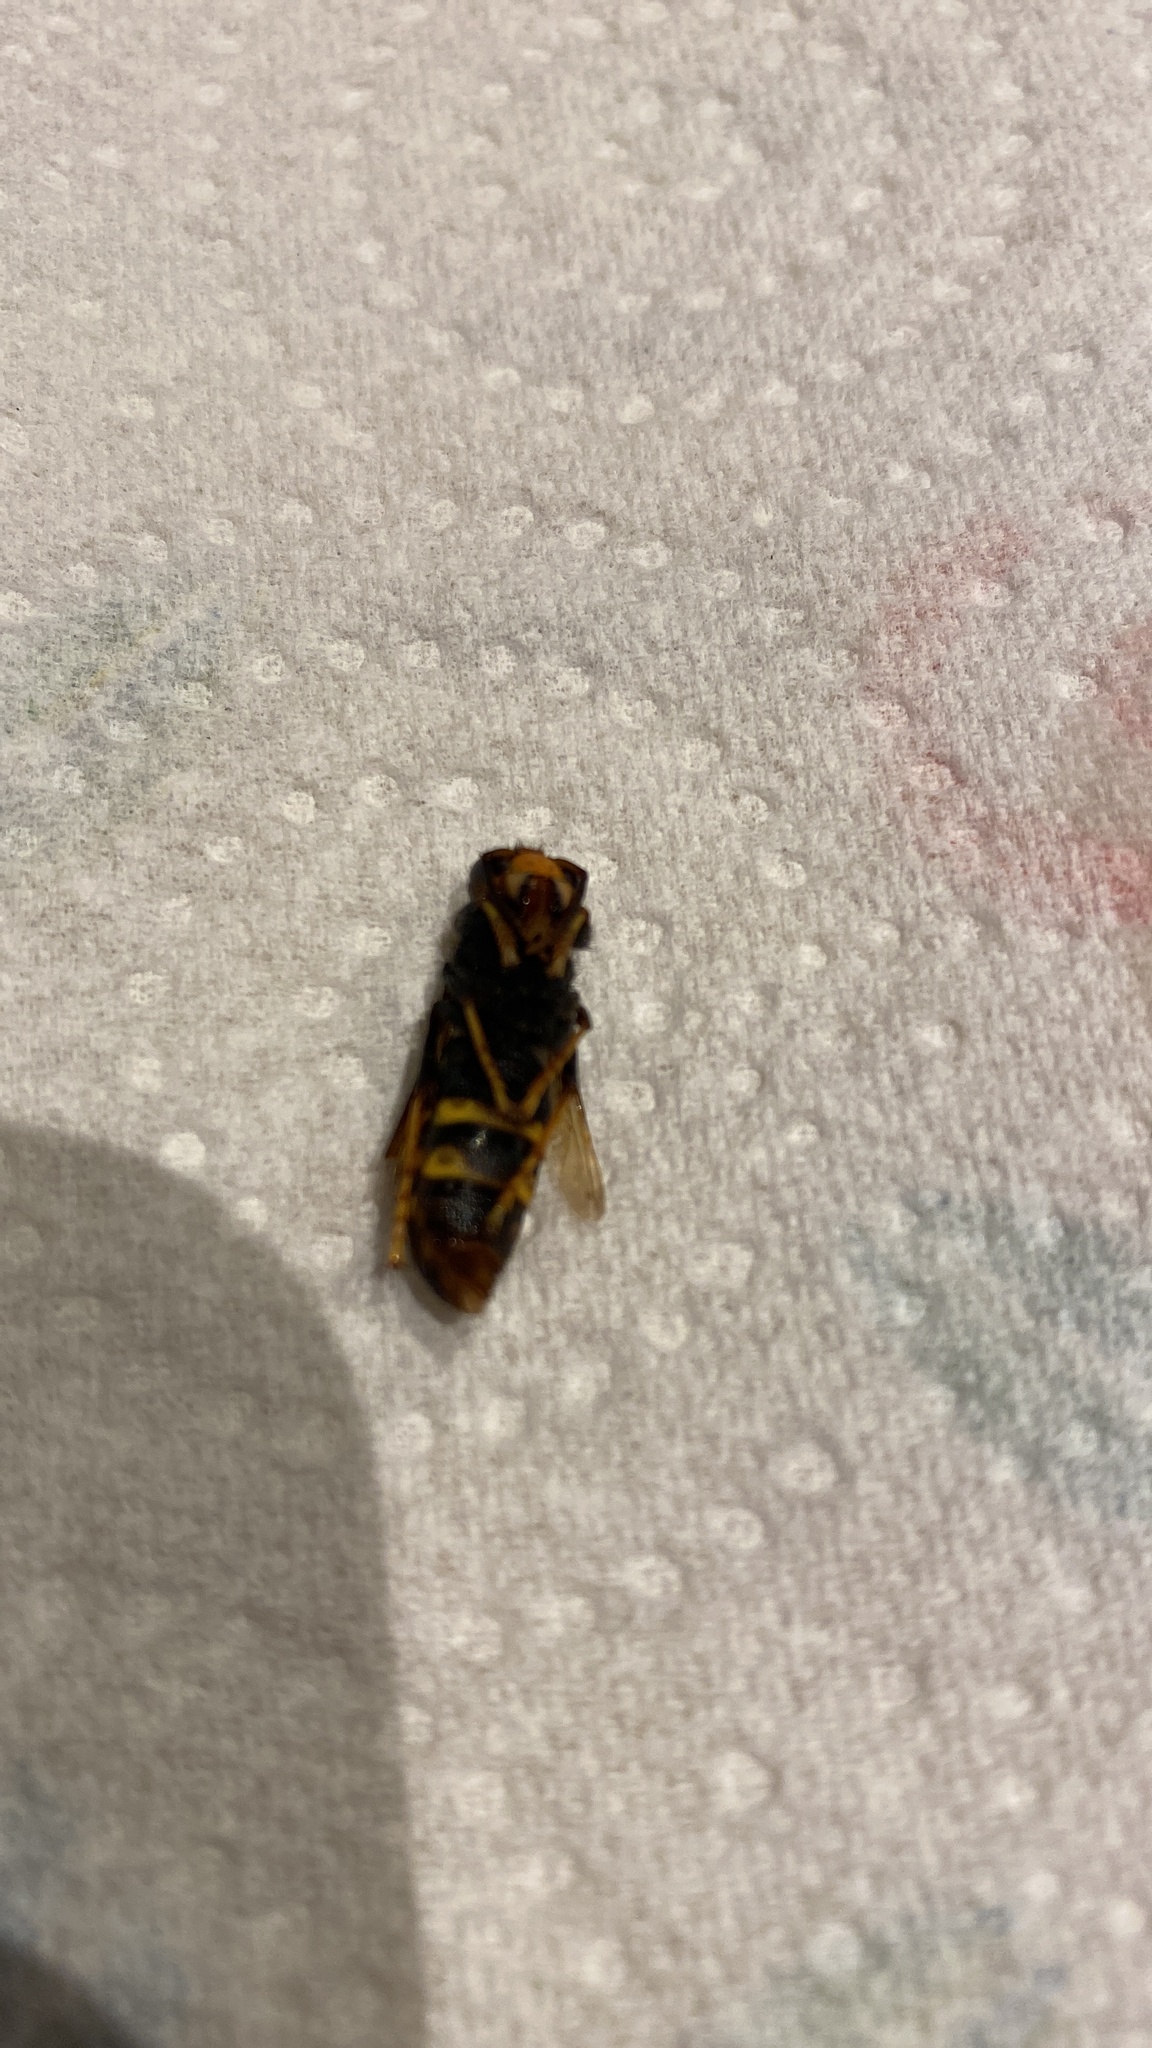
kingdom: Animalia
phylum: Arthropoda
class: Insecta
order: Hymenoptera
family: Vespidae
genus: Vespa
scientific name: Vespa velutina
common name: Asian hornet
